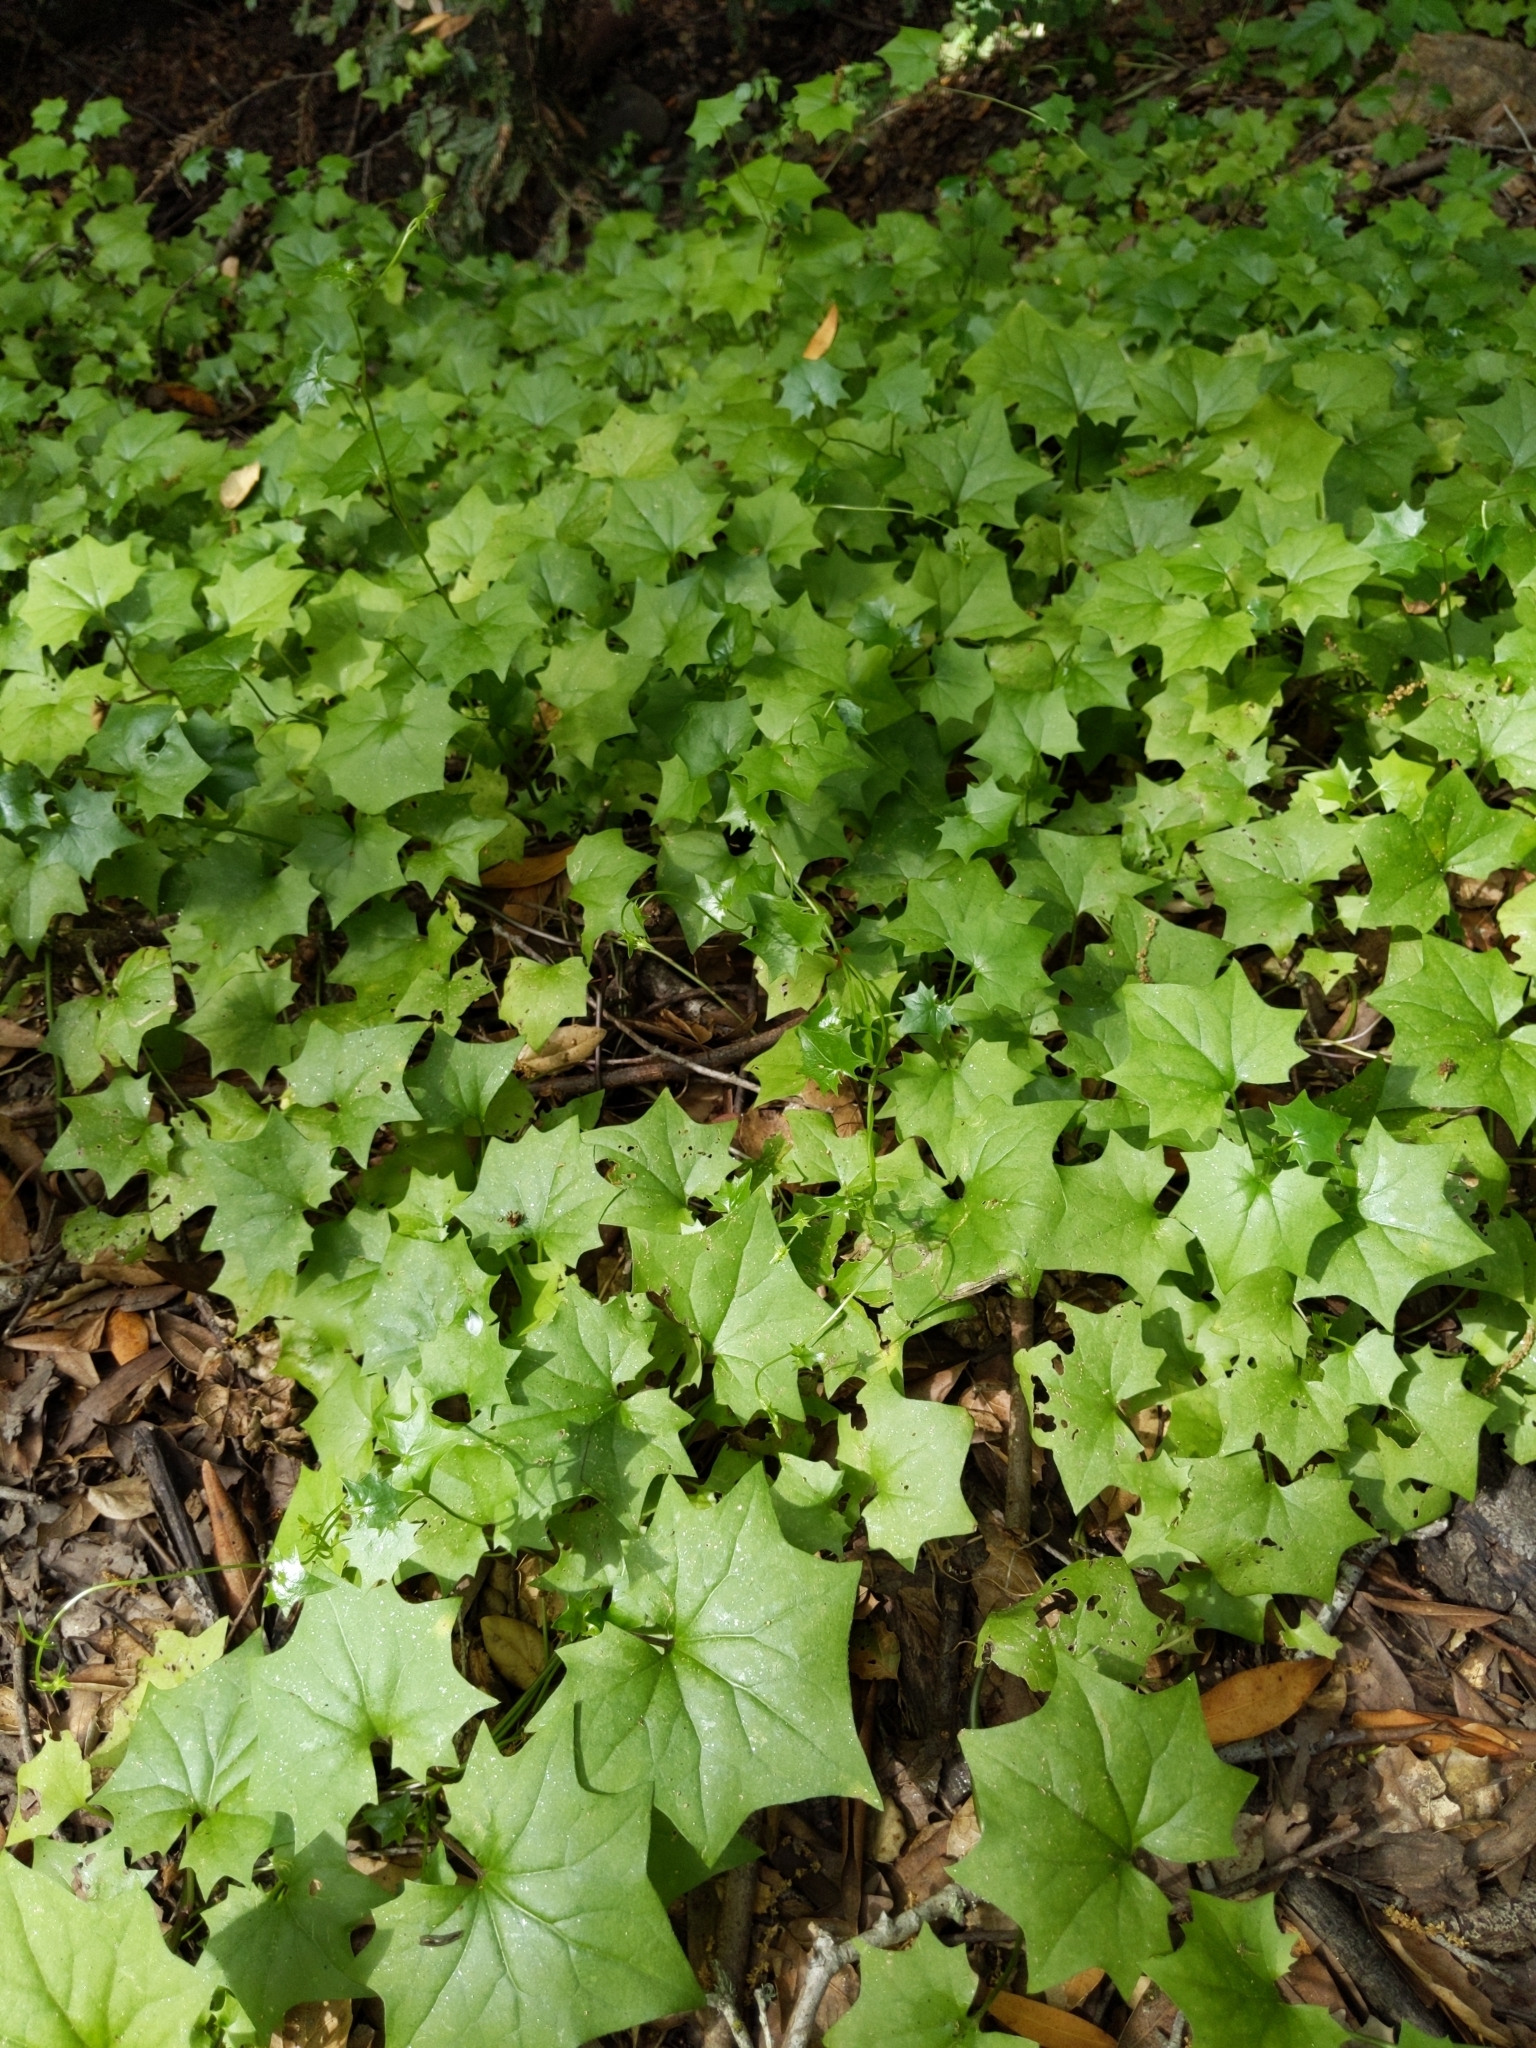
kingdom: Plantae
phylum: Tracheophyta
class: Magnoliopsida
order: Asterales
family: Asteraceae
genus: Delairea
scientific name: Delairea odorata
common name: Cape-ivy
